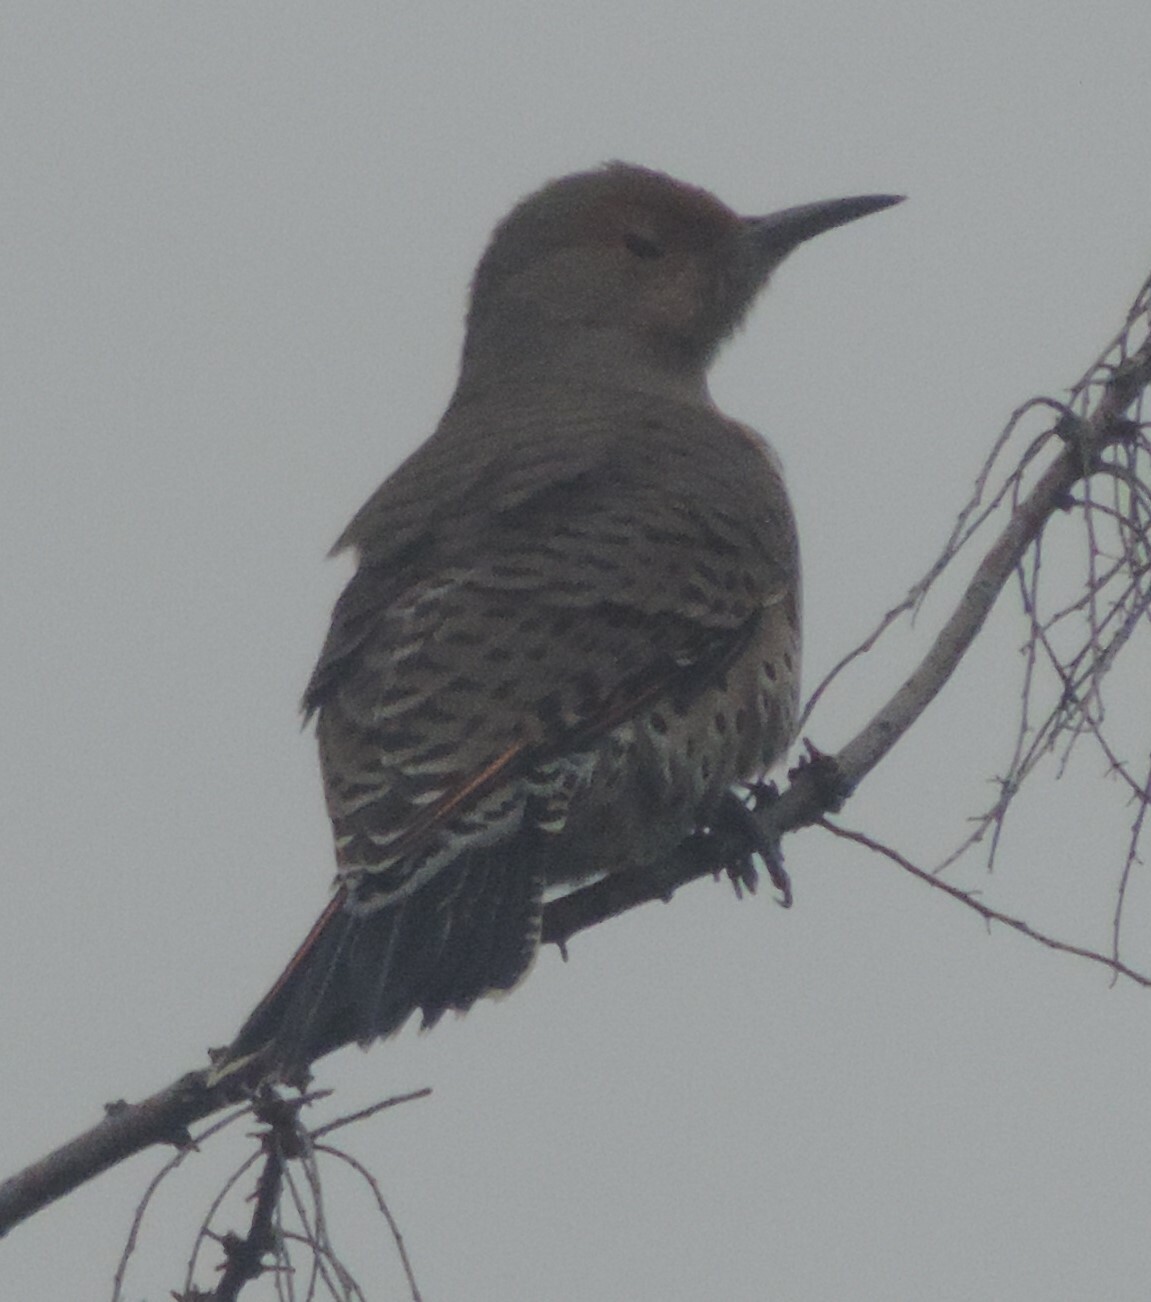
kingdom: Animalia
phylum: Chordata
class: Aves
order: Piciformes
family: Picidae
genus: Colaptes
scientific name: Colaptes auratus
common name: Northern flicker
